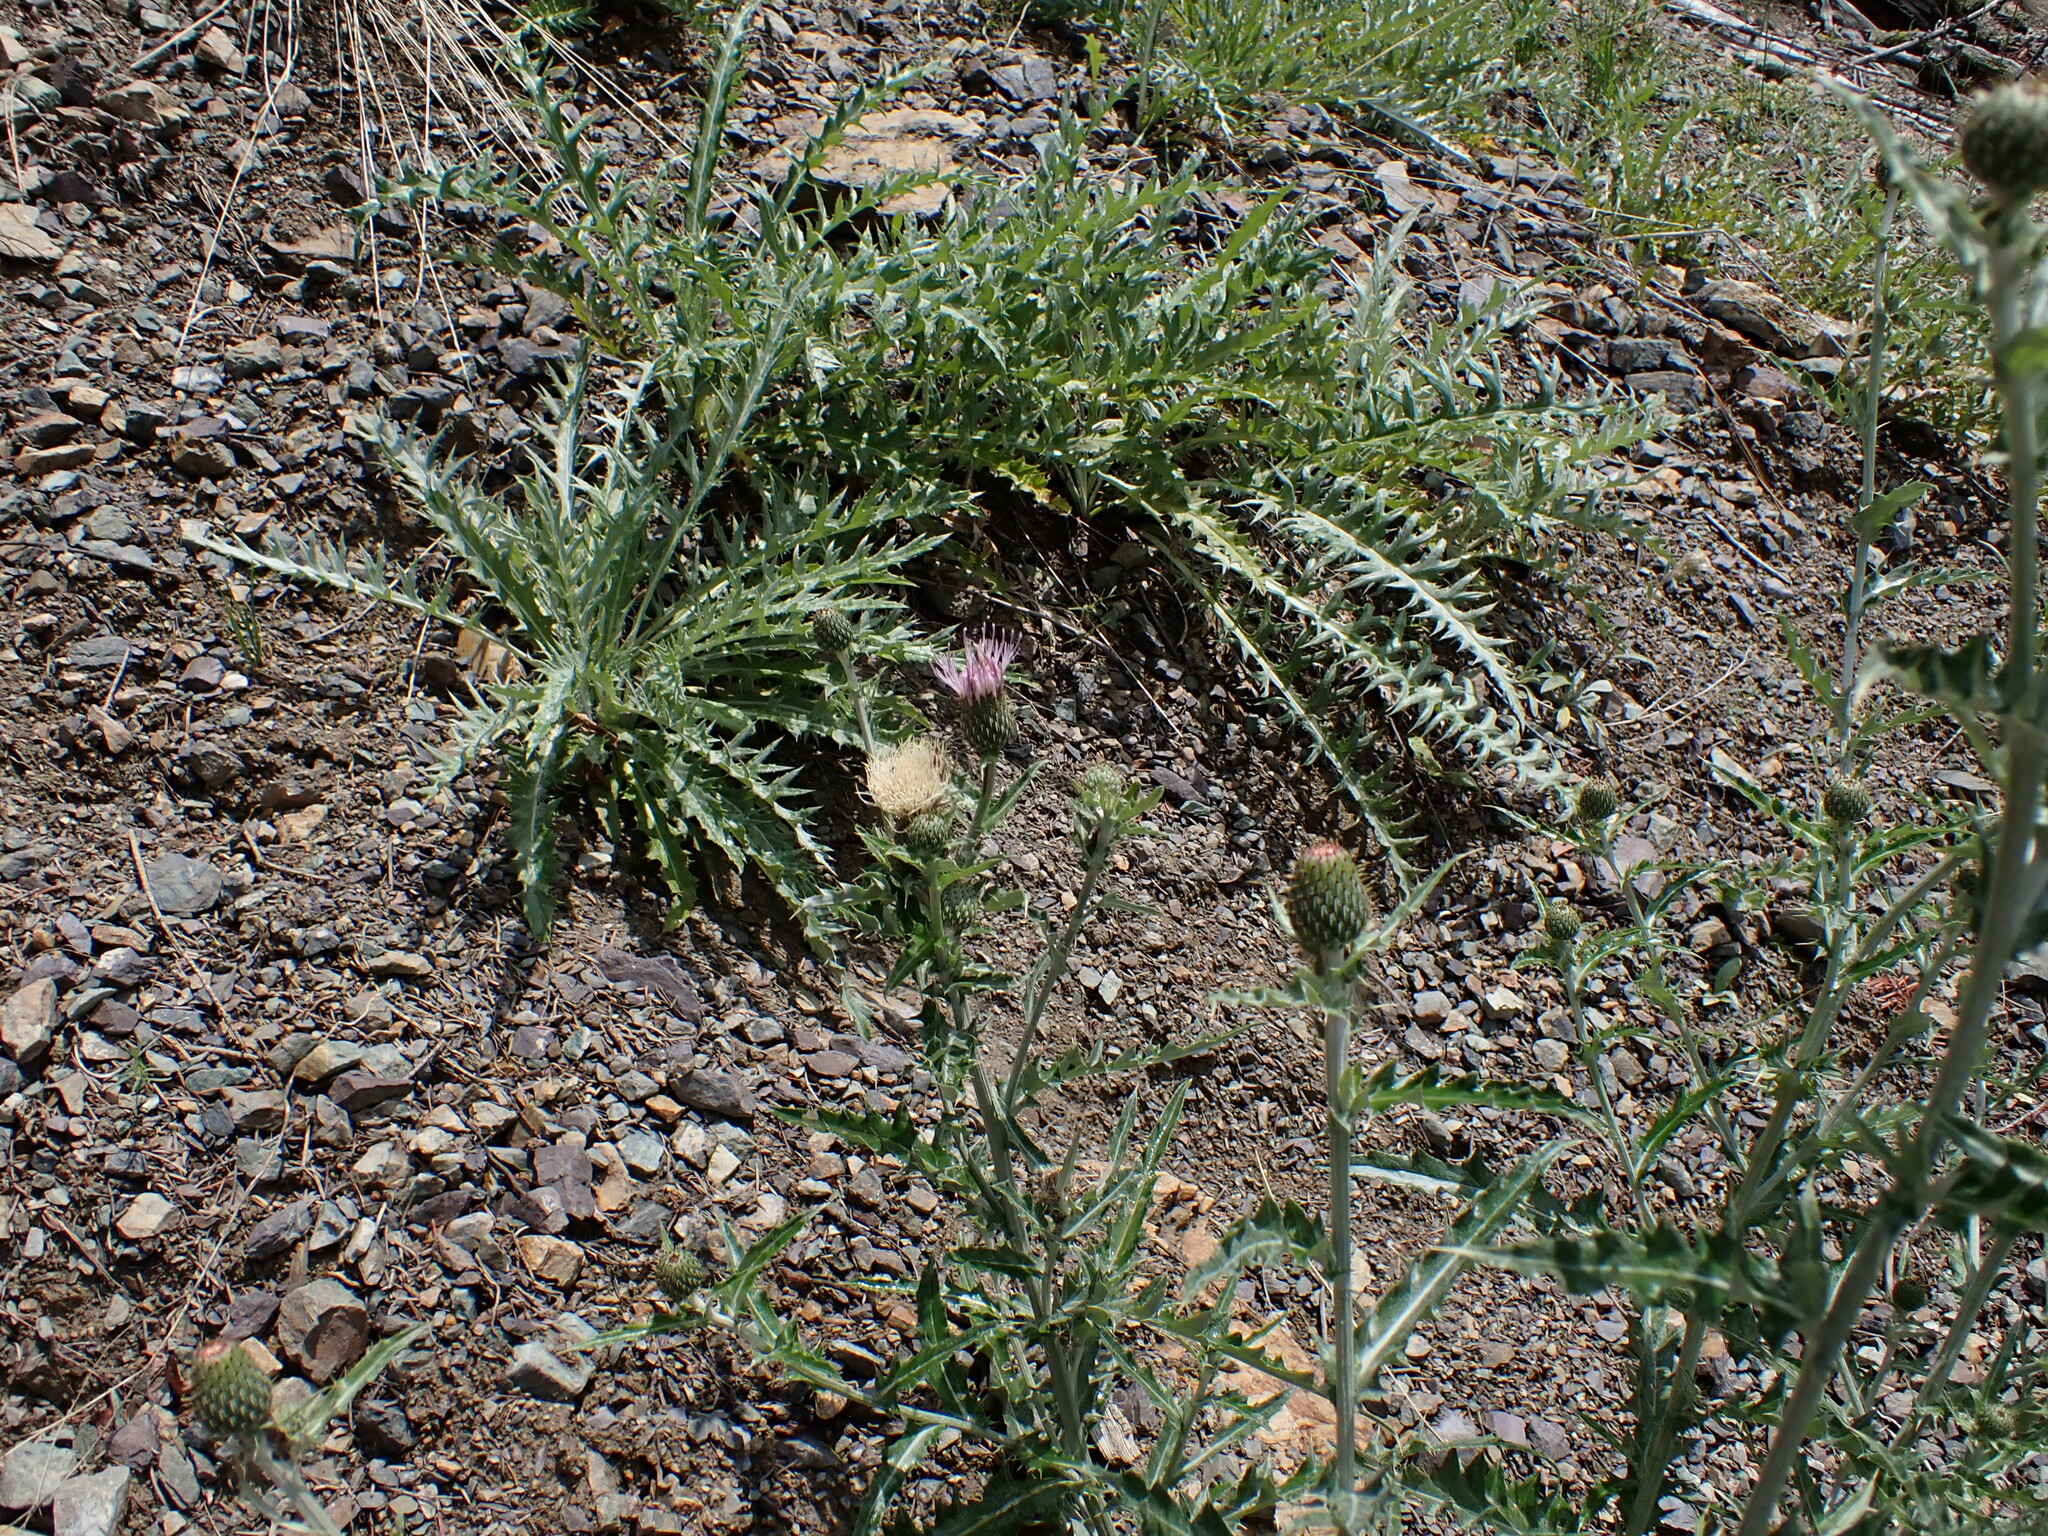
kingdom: Plantae
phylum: Tracheophyta
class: Magnoliopsida
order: Asterales
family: Asteraceae
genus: Cirsium
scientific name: Cirsium undulatum
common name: Pasture thistle
